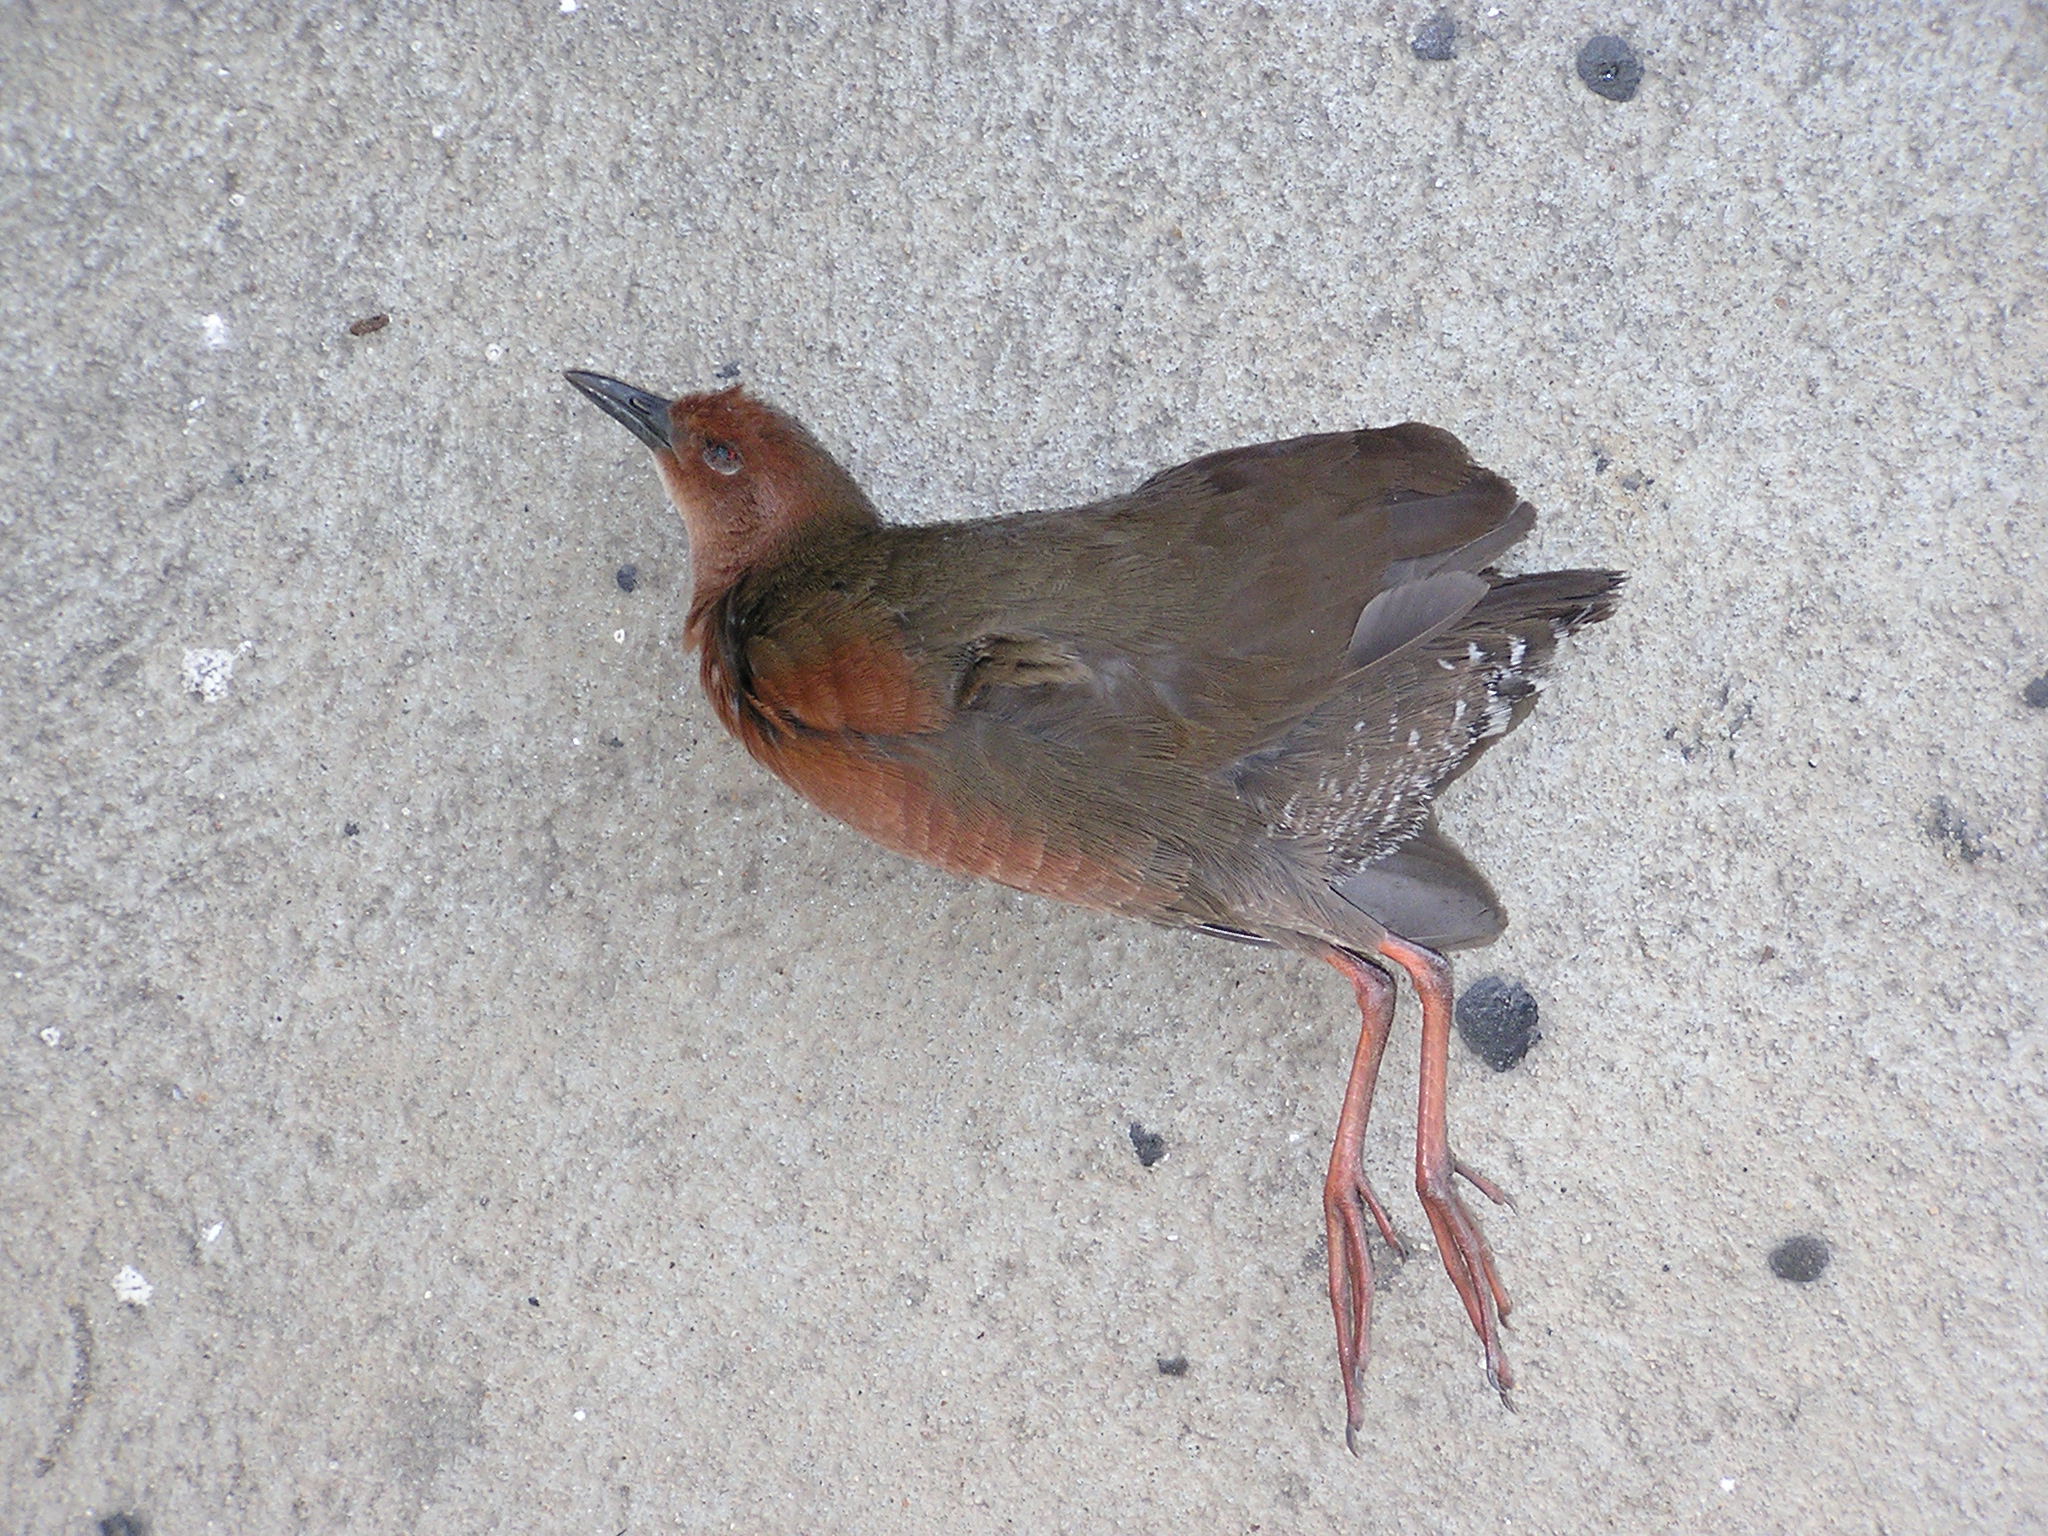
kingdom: Animalia
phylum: Chordata
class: Aves
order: Gruiformes
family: Rallidae
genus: Porzana
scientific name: Porzana fusca
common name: Ruddy-breasted crake
